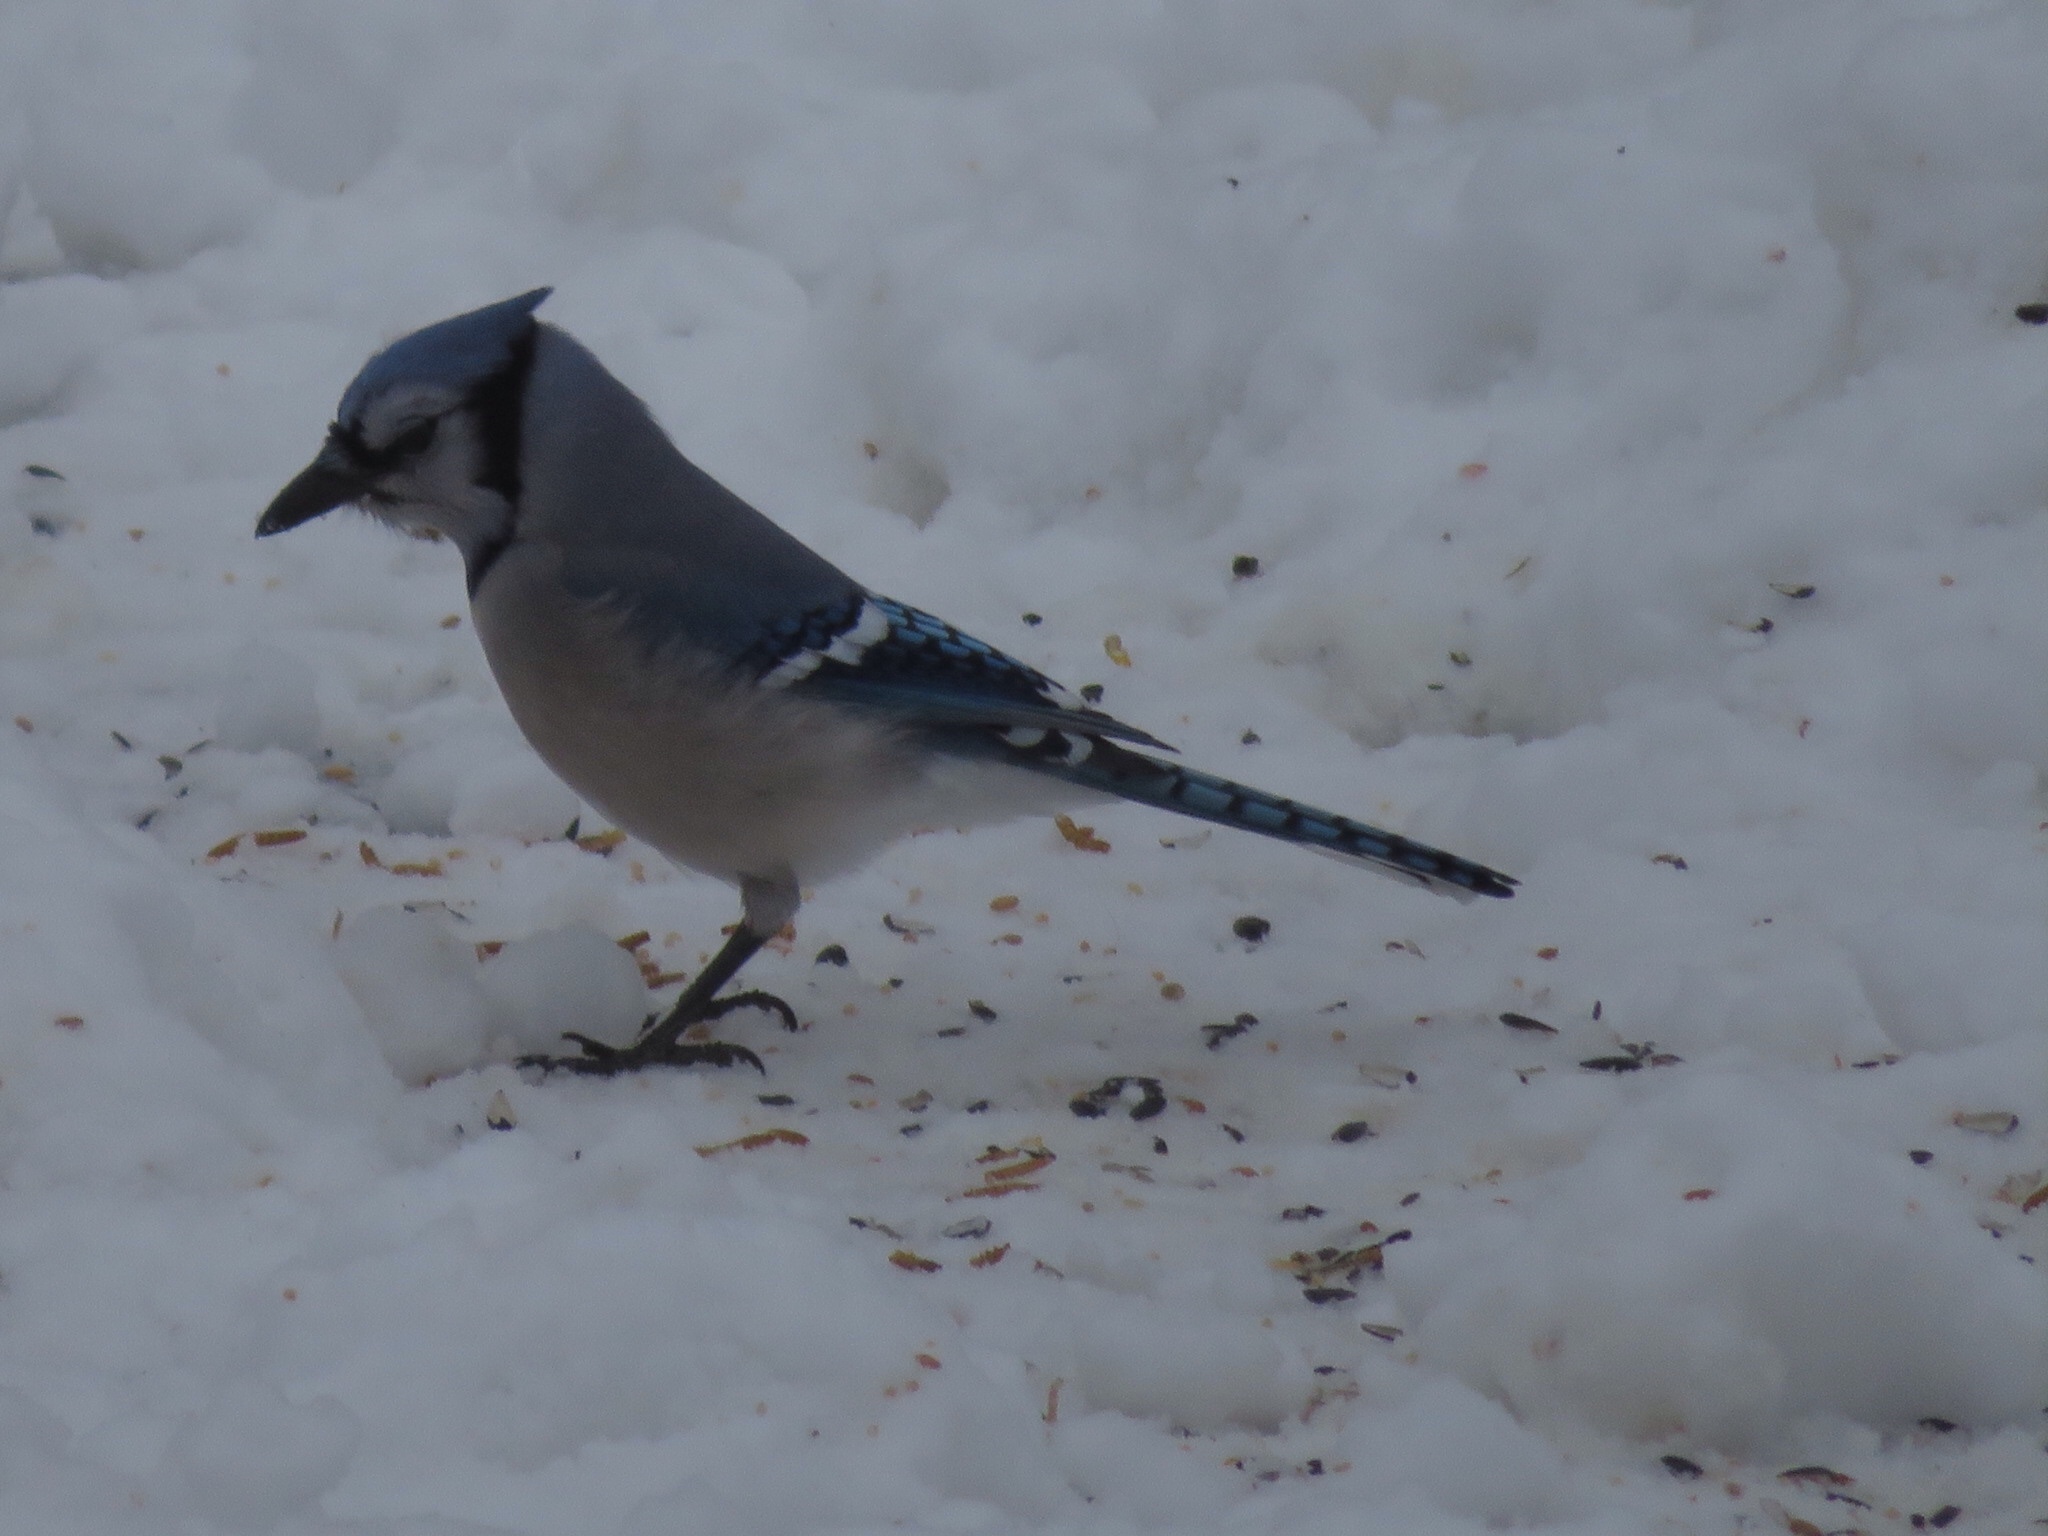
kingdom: Animalia
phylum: Chordata
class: Aves
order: Passeriformes
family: Corvidae
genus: Cyanocitta
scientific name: Cyanocitta cristata
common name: Blue jay
